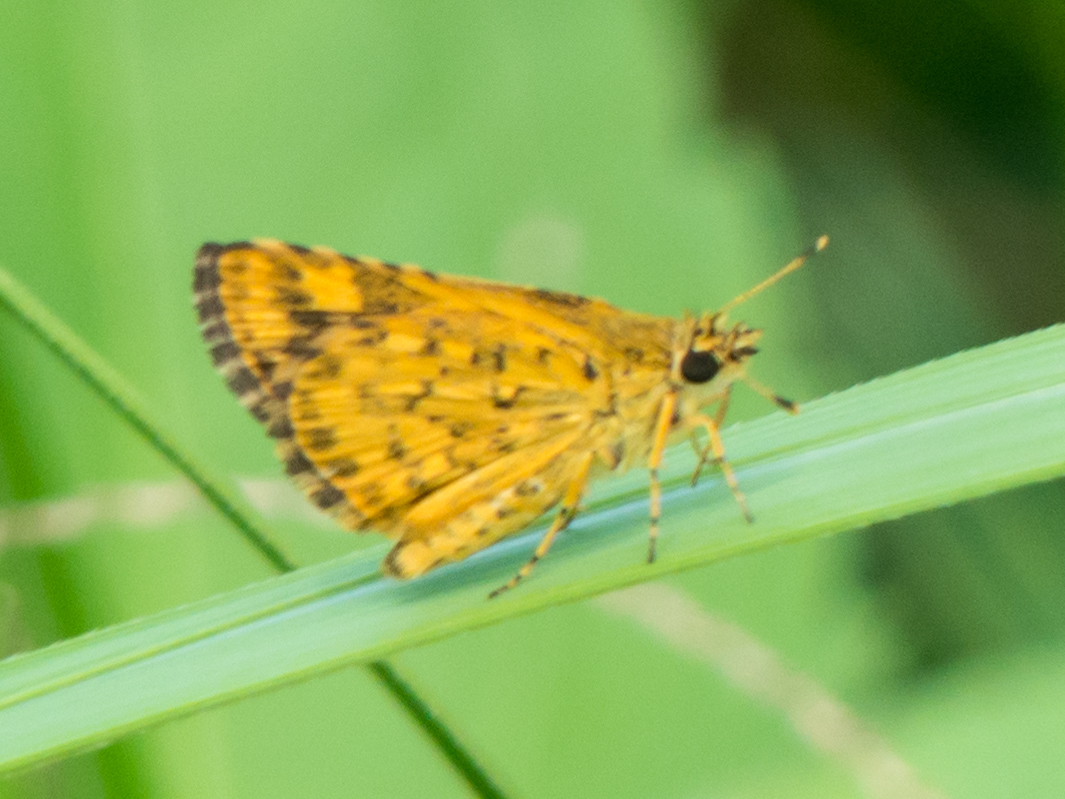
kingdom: Animalia
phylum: Arthropoda
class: Insecta
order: Lepidoptera
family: Hesperiidae
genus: Ampittia
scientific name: Ampittia dioscorides
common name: Common bush hopper
